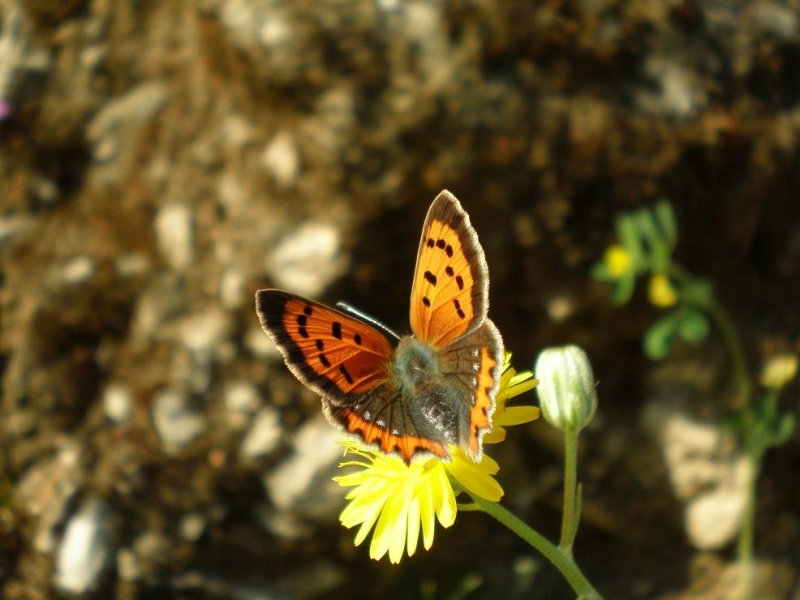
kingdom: Animalia
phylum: Arthropoda
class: Insecta
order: Lepidoptera
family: Lycaenidae
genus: Lycaena
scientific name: Lycaena phlaeas
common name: Small copper
